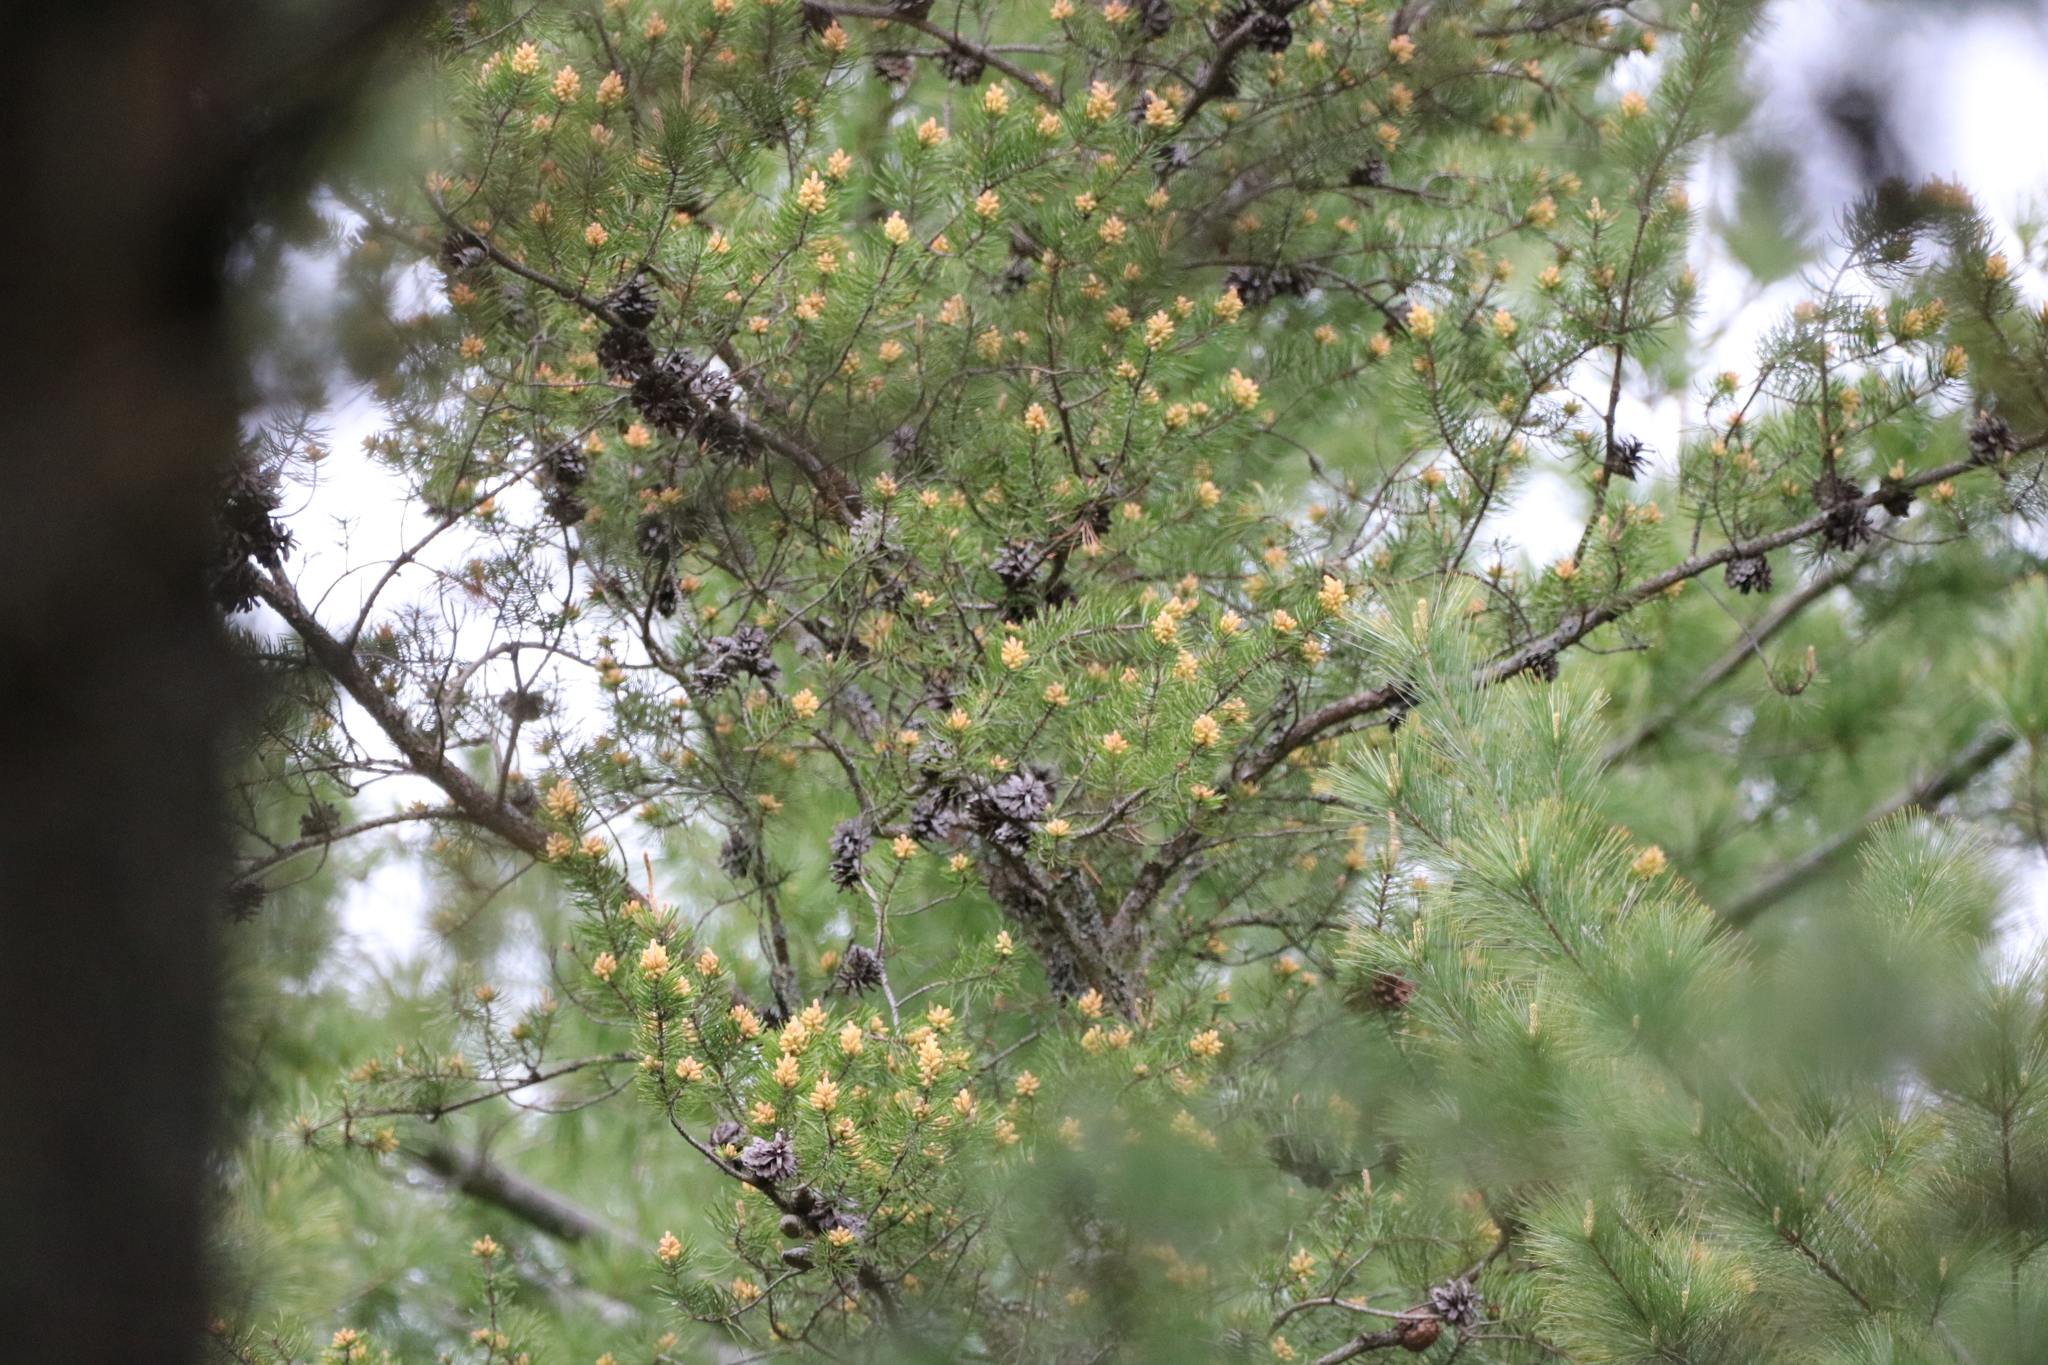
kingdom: Plantae
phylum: Tracheophyta
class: Pinopsida
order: Pinales
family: Pinaceae
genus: Pinus
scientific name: Pinus banksiana
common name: Jack pine
